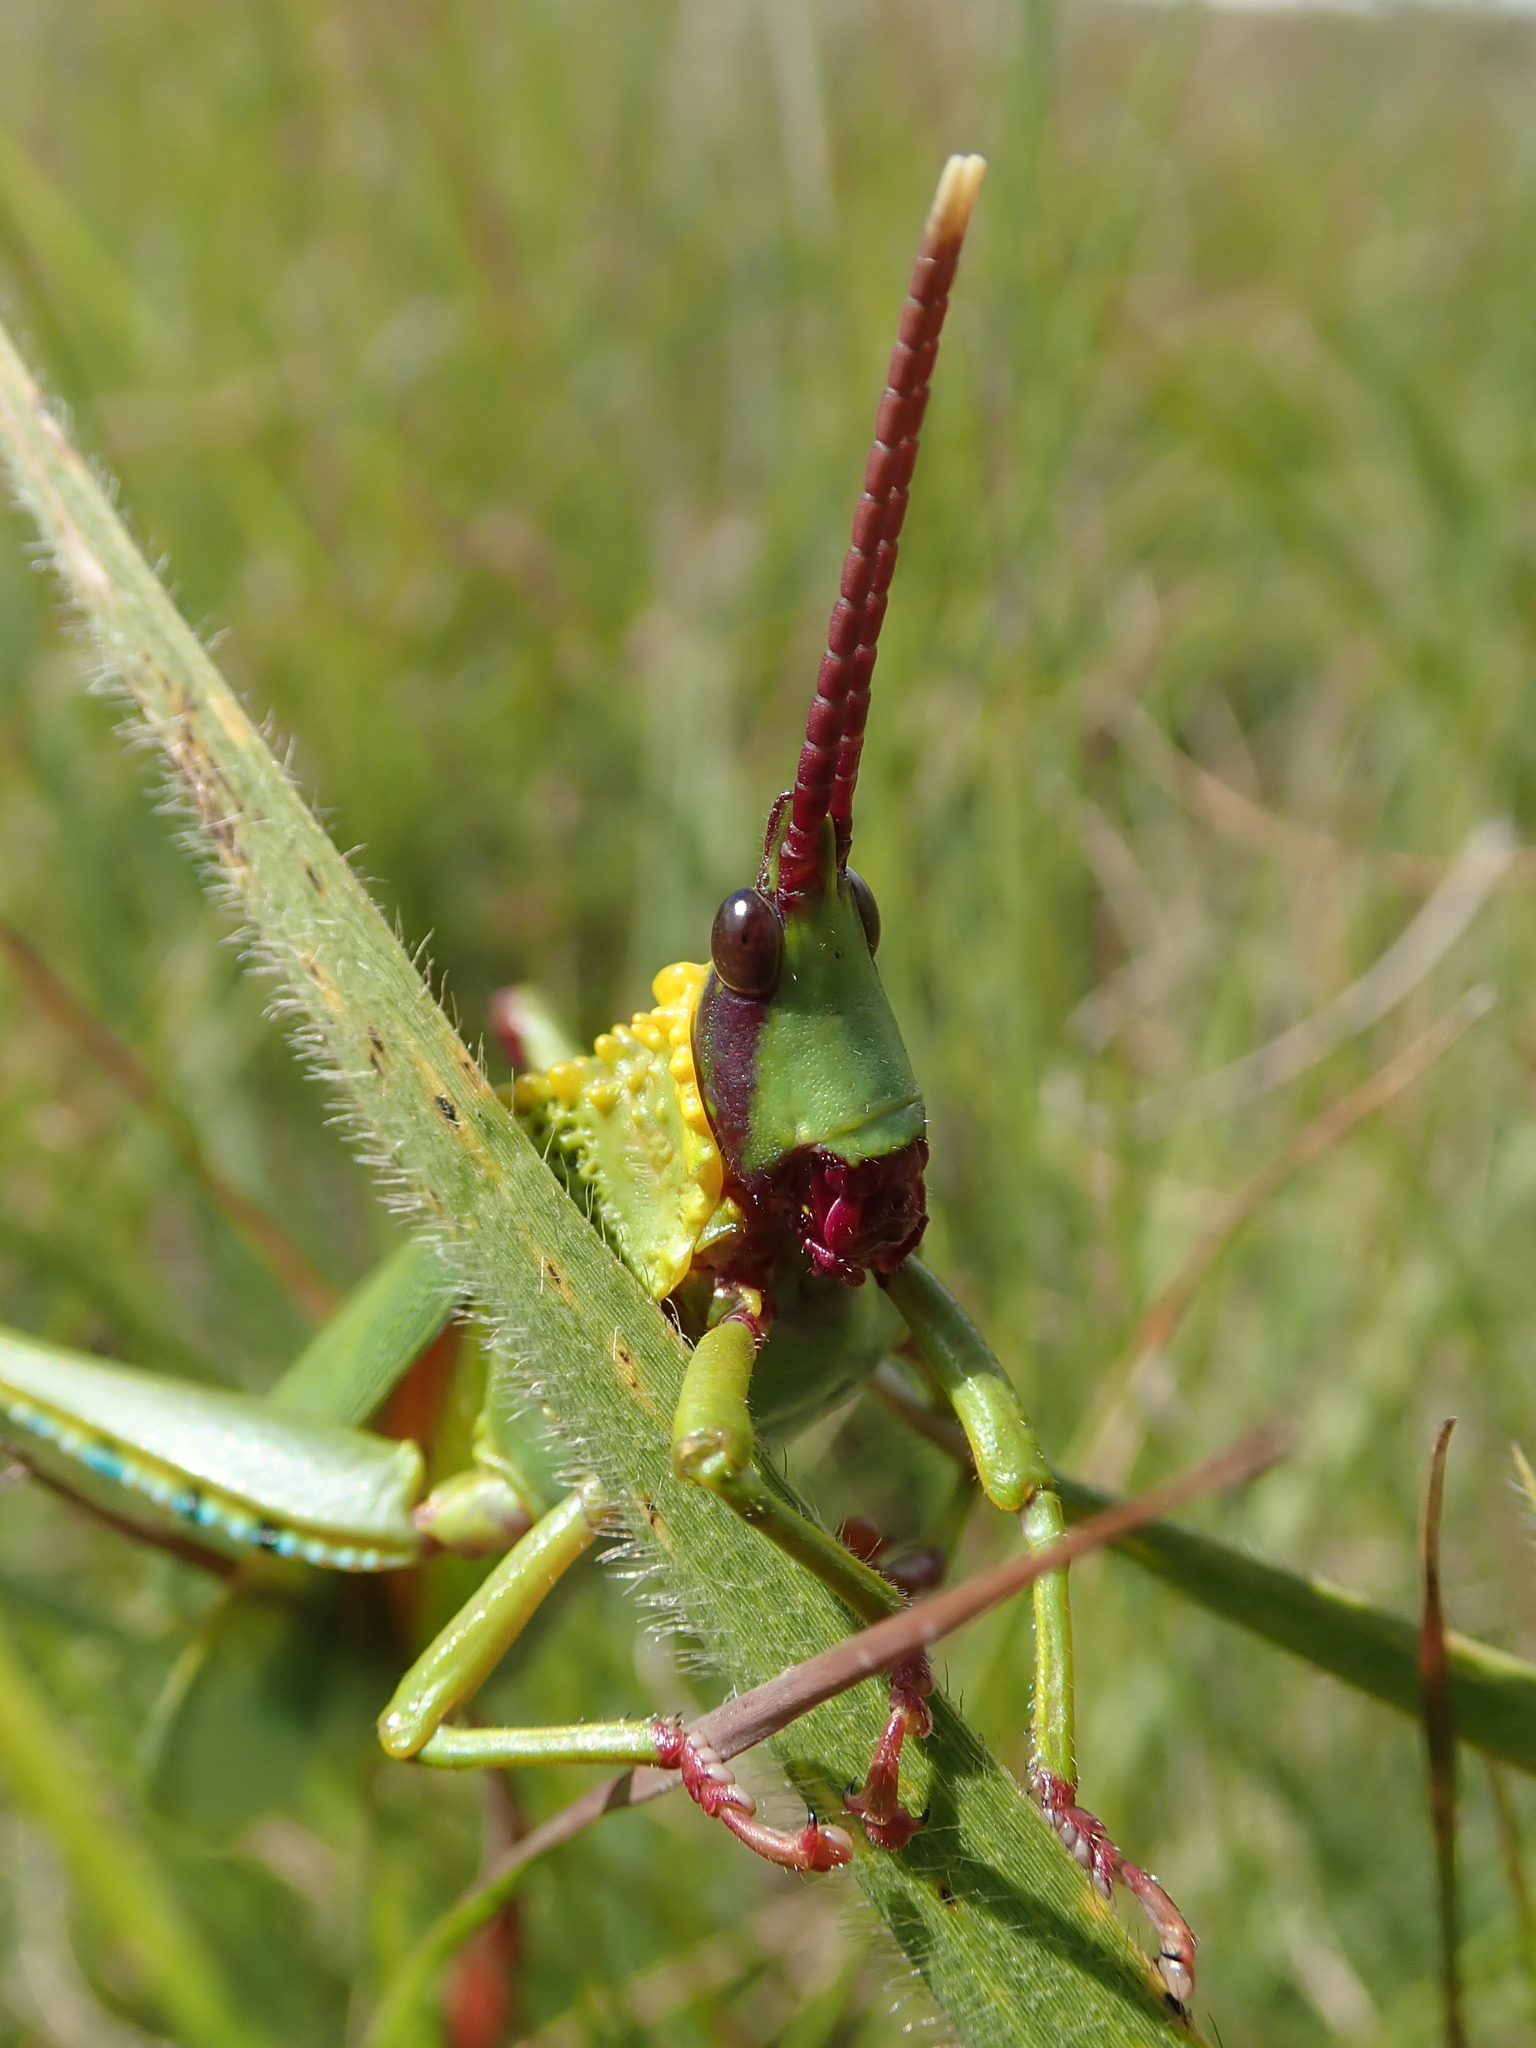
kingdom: Animalia
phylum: Arthropoda
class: Insecta
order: Orthoptera
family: Pyrgomorphidae
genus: Taphronota
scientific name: Taphronota calliparea
